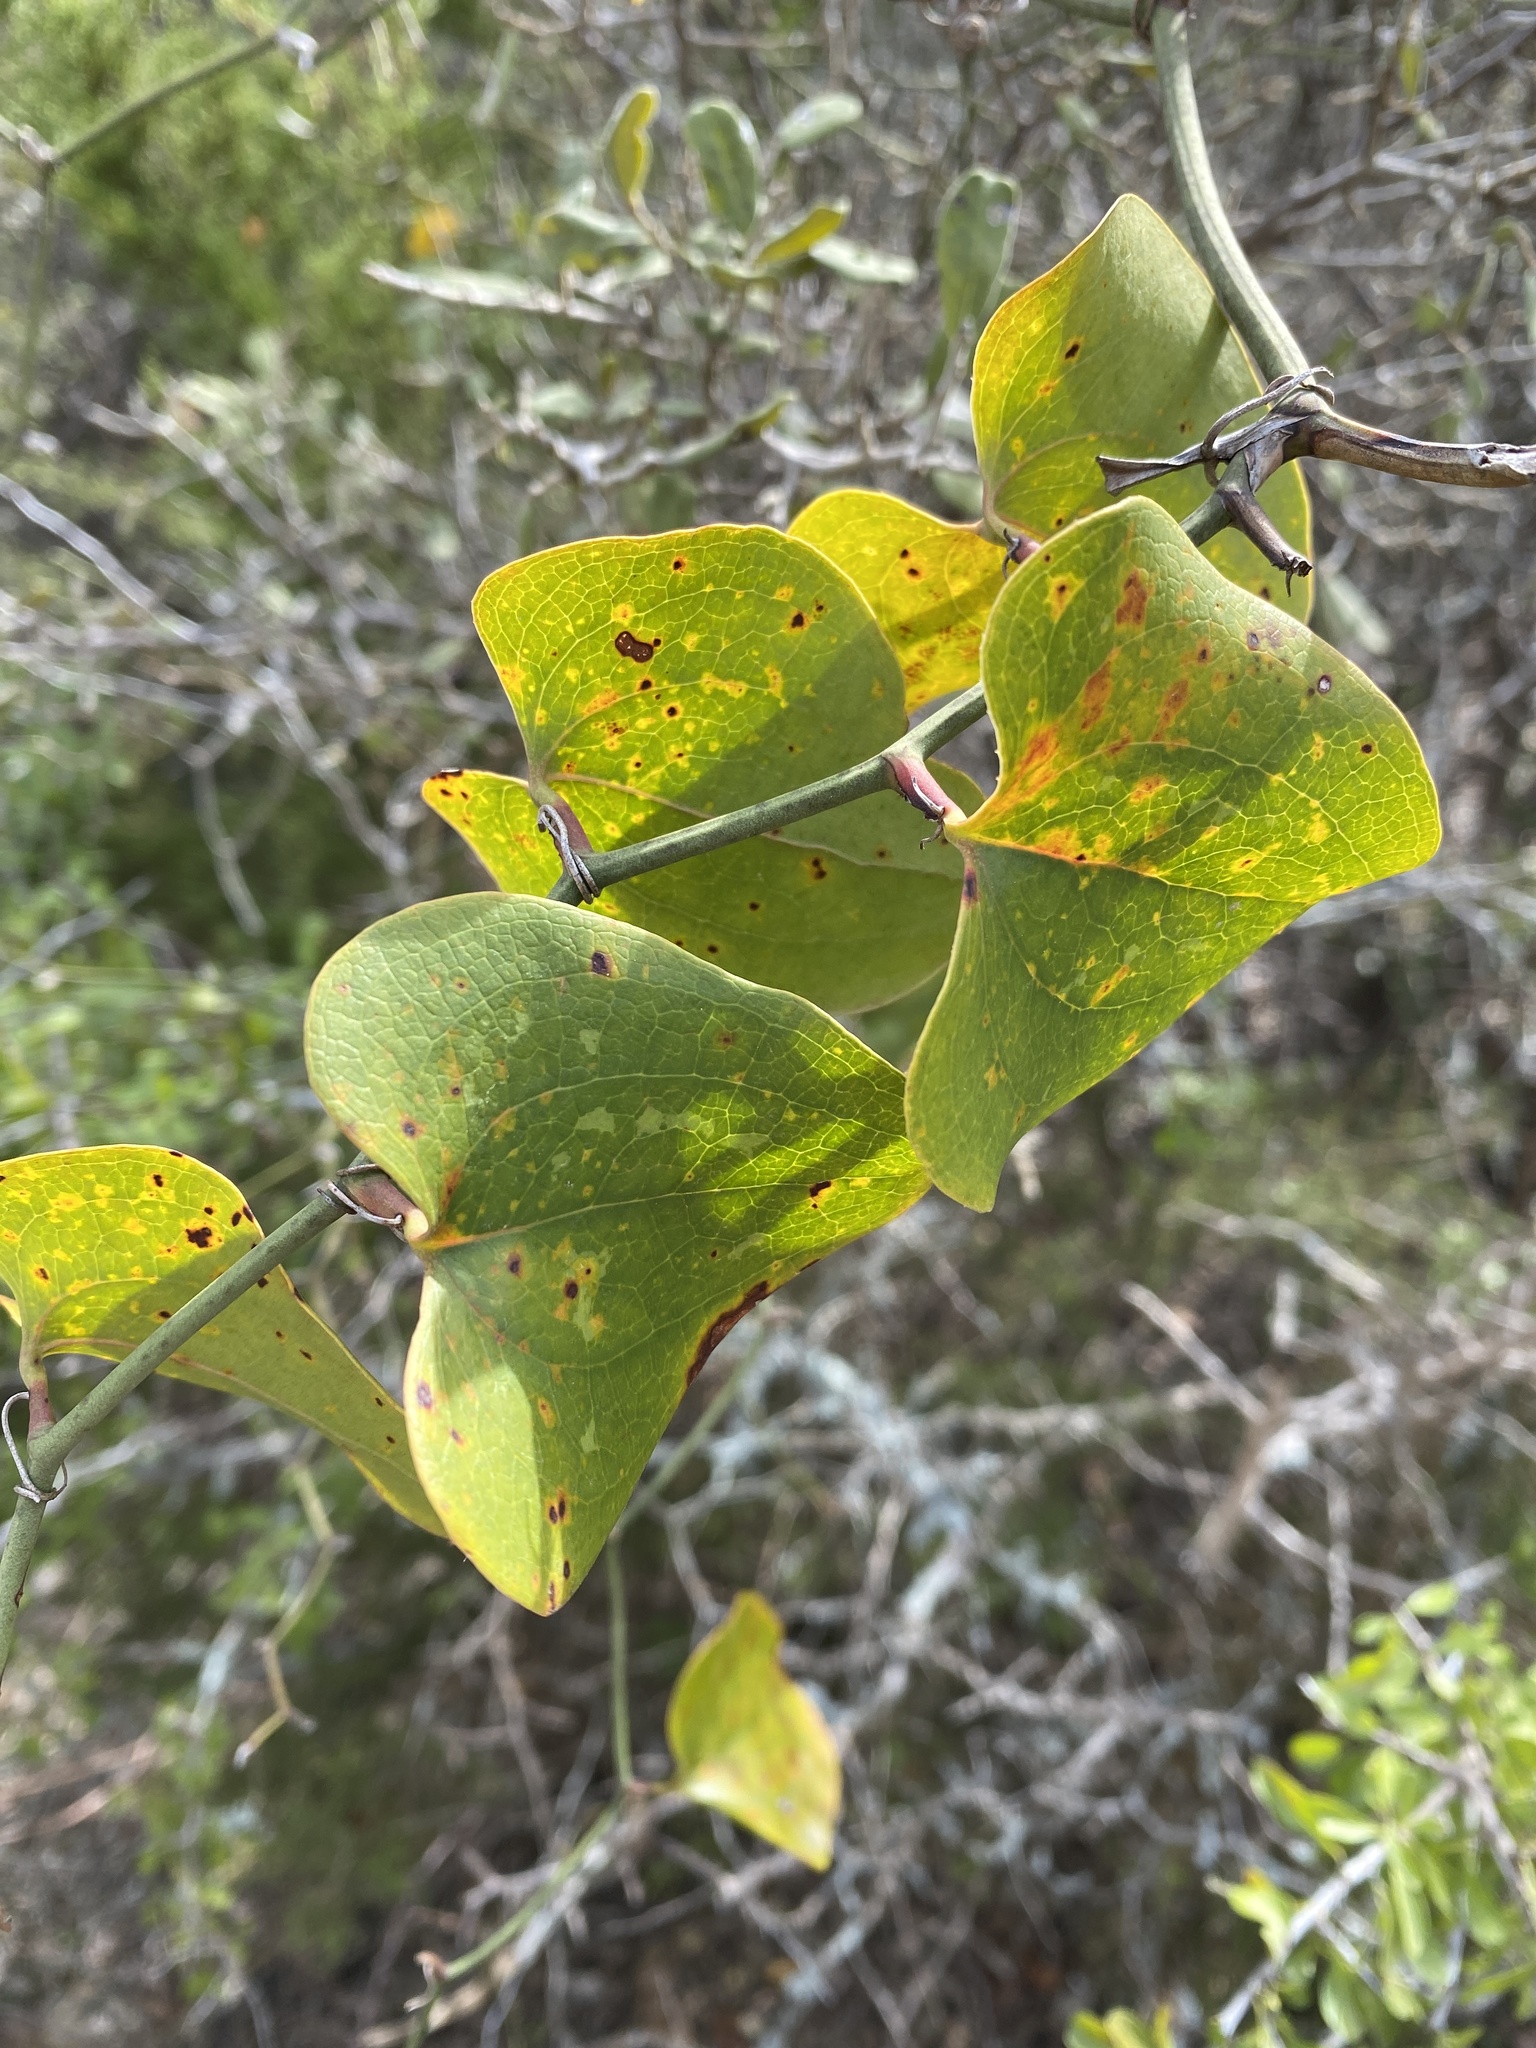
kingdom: Plantae
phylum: Tracheophyta
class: Liliopsida
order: Liliales
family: Smilacaceae
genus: Smilax
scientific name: Smilax bona-nox
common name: Catbrier
